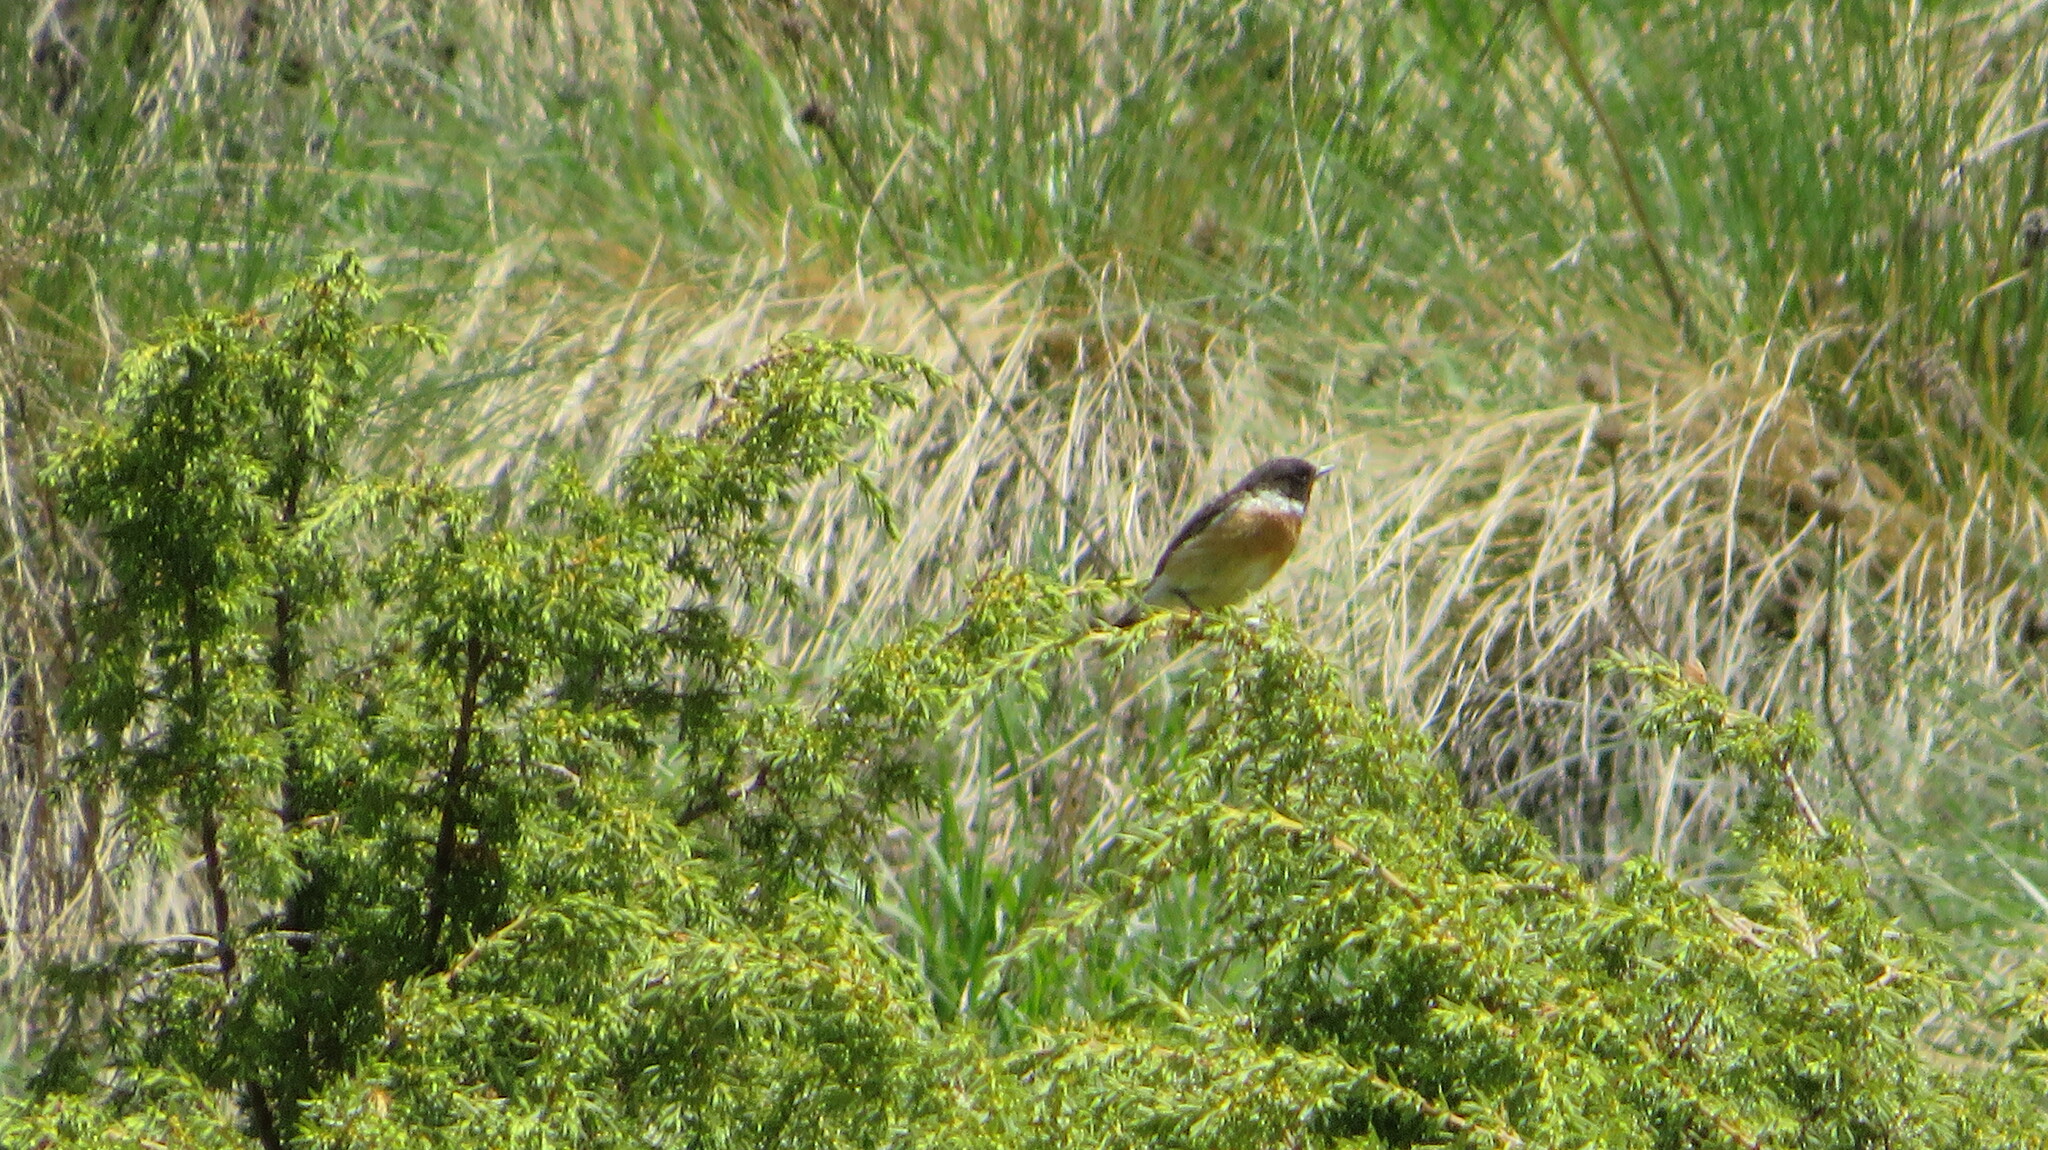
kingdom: Animalia
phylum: Chordata
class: Aves
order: Passeriformes
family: Muscicapidae
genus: Saxicola
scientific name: Saxicola rubicola
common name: European stonechat
